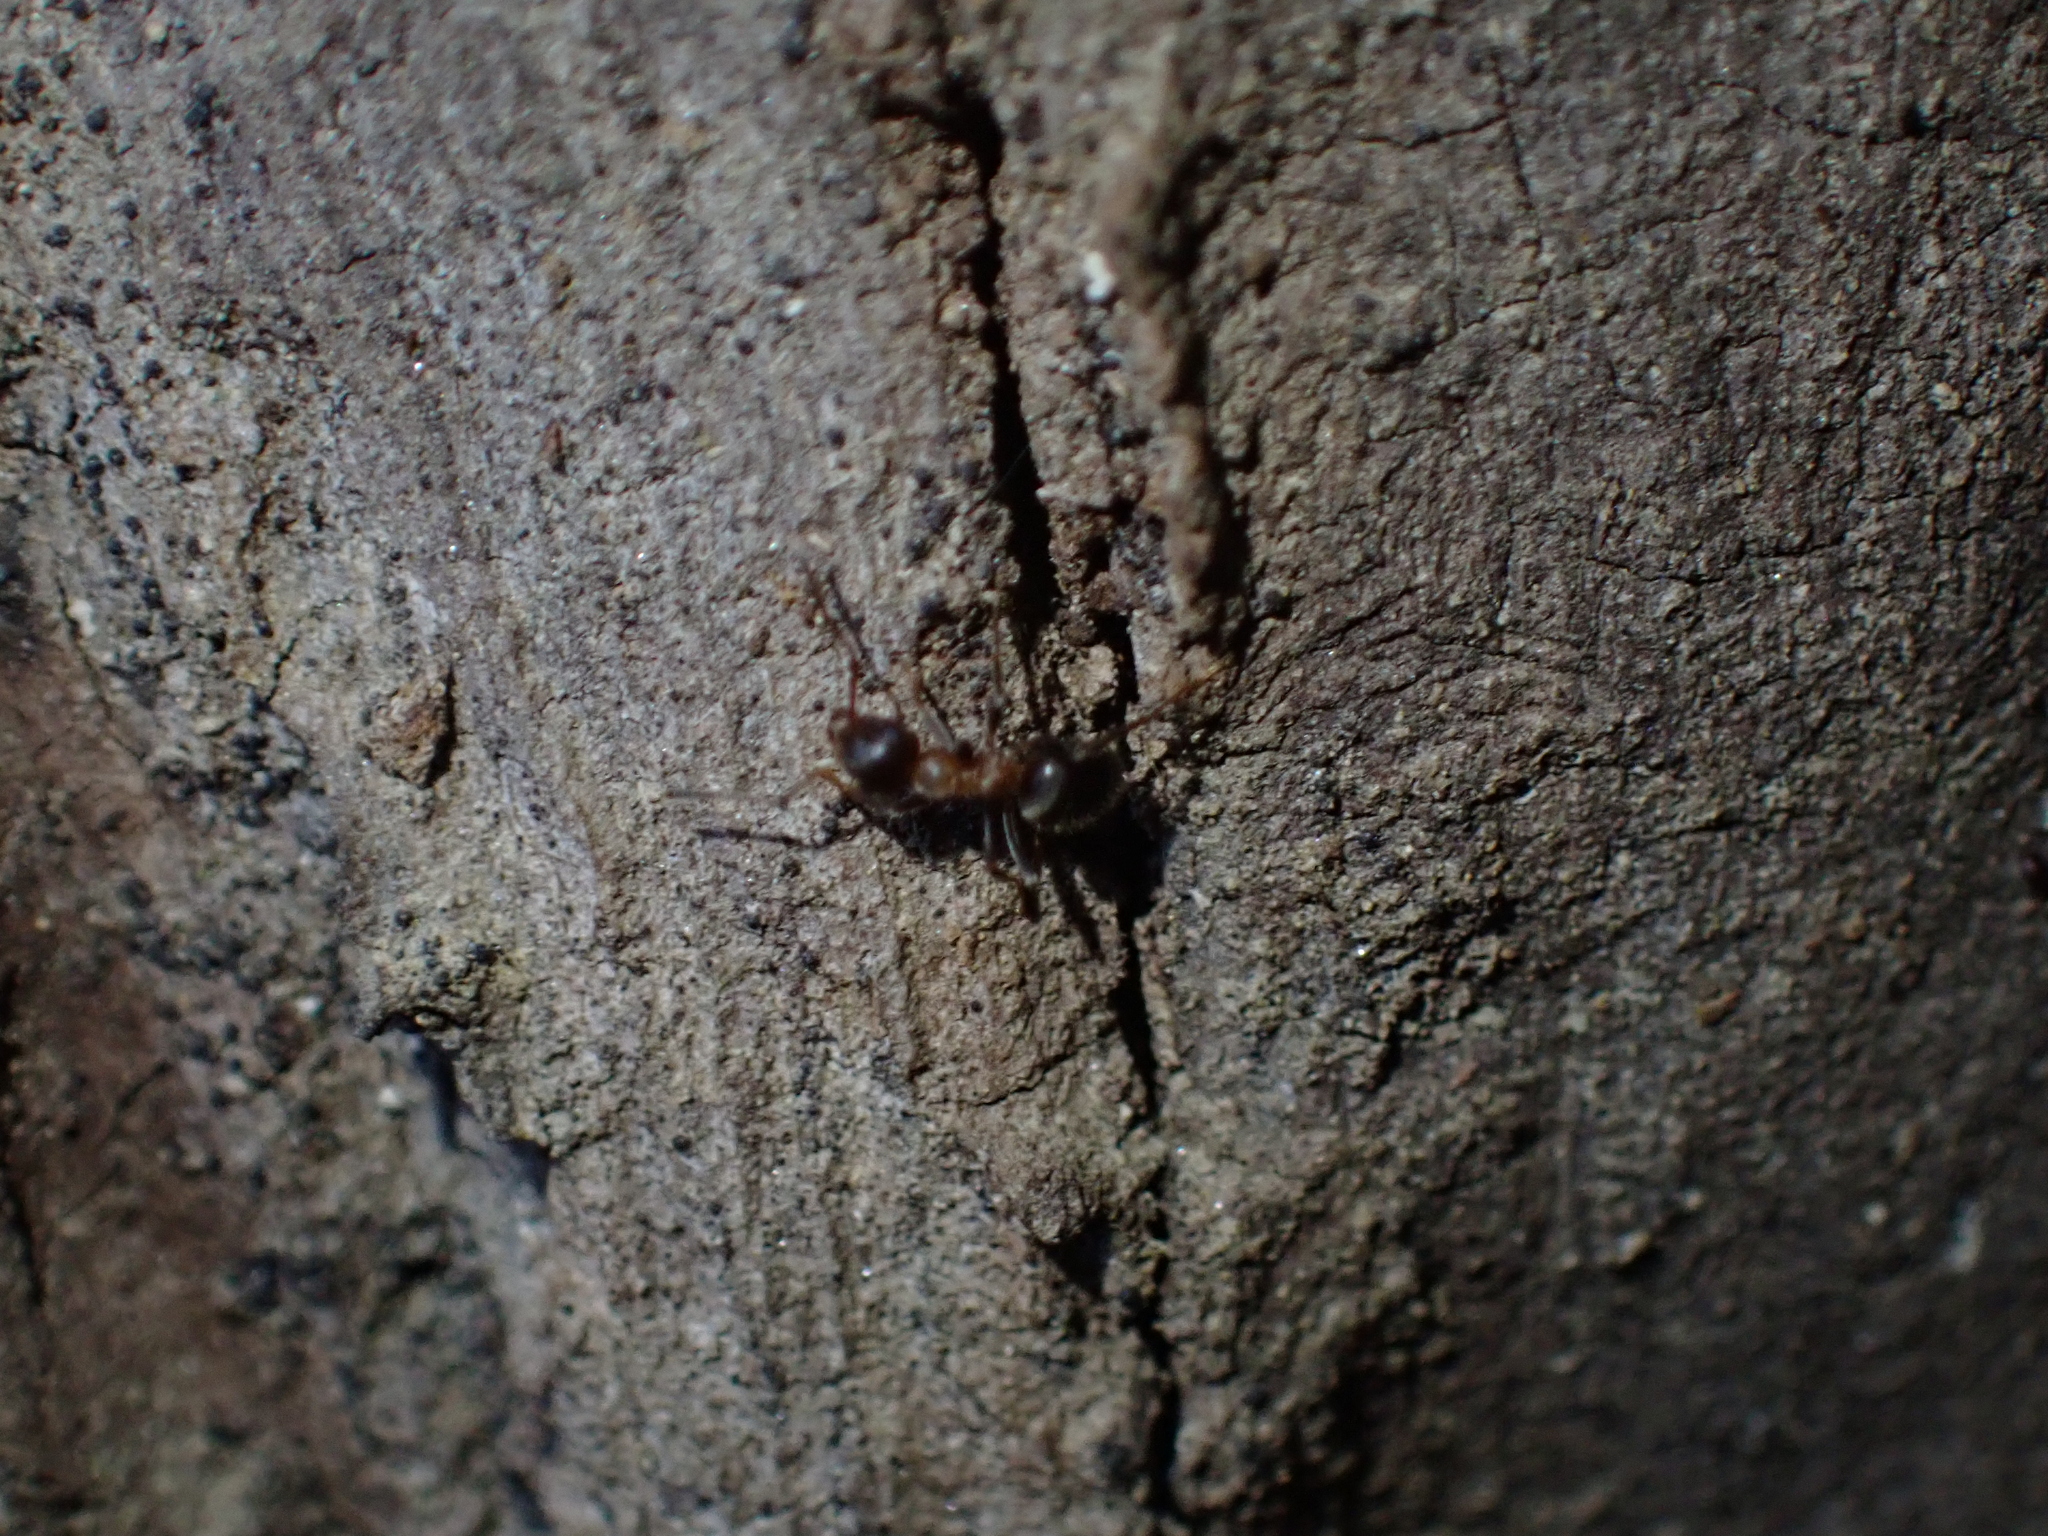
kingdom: Animalia
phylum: Arthropoda
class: Insecta
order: Hymenoptera
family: Formicidae
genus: Lasius
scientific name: Lasius emarginatus
